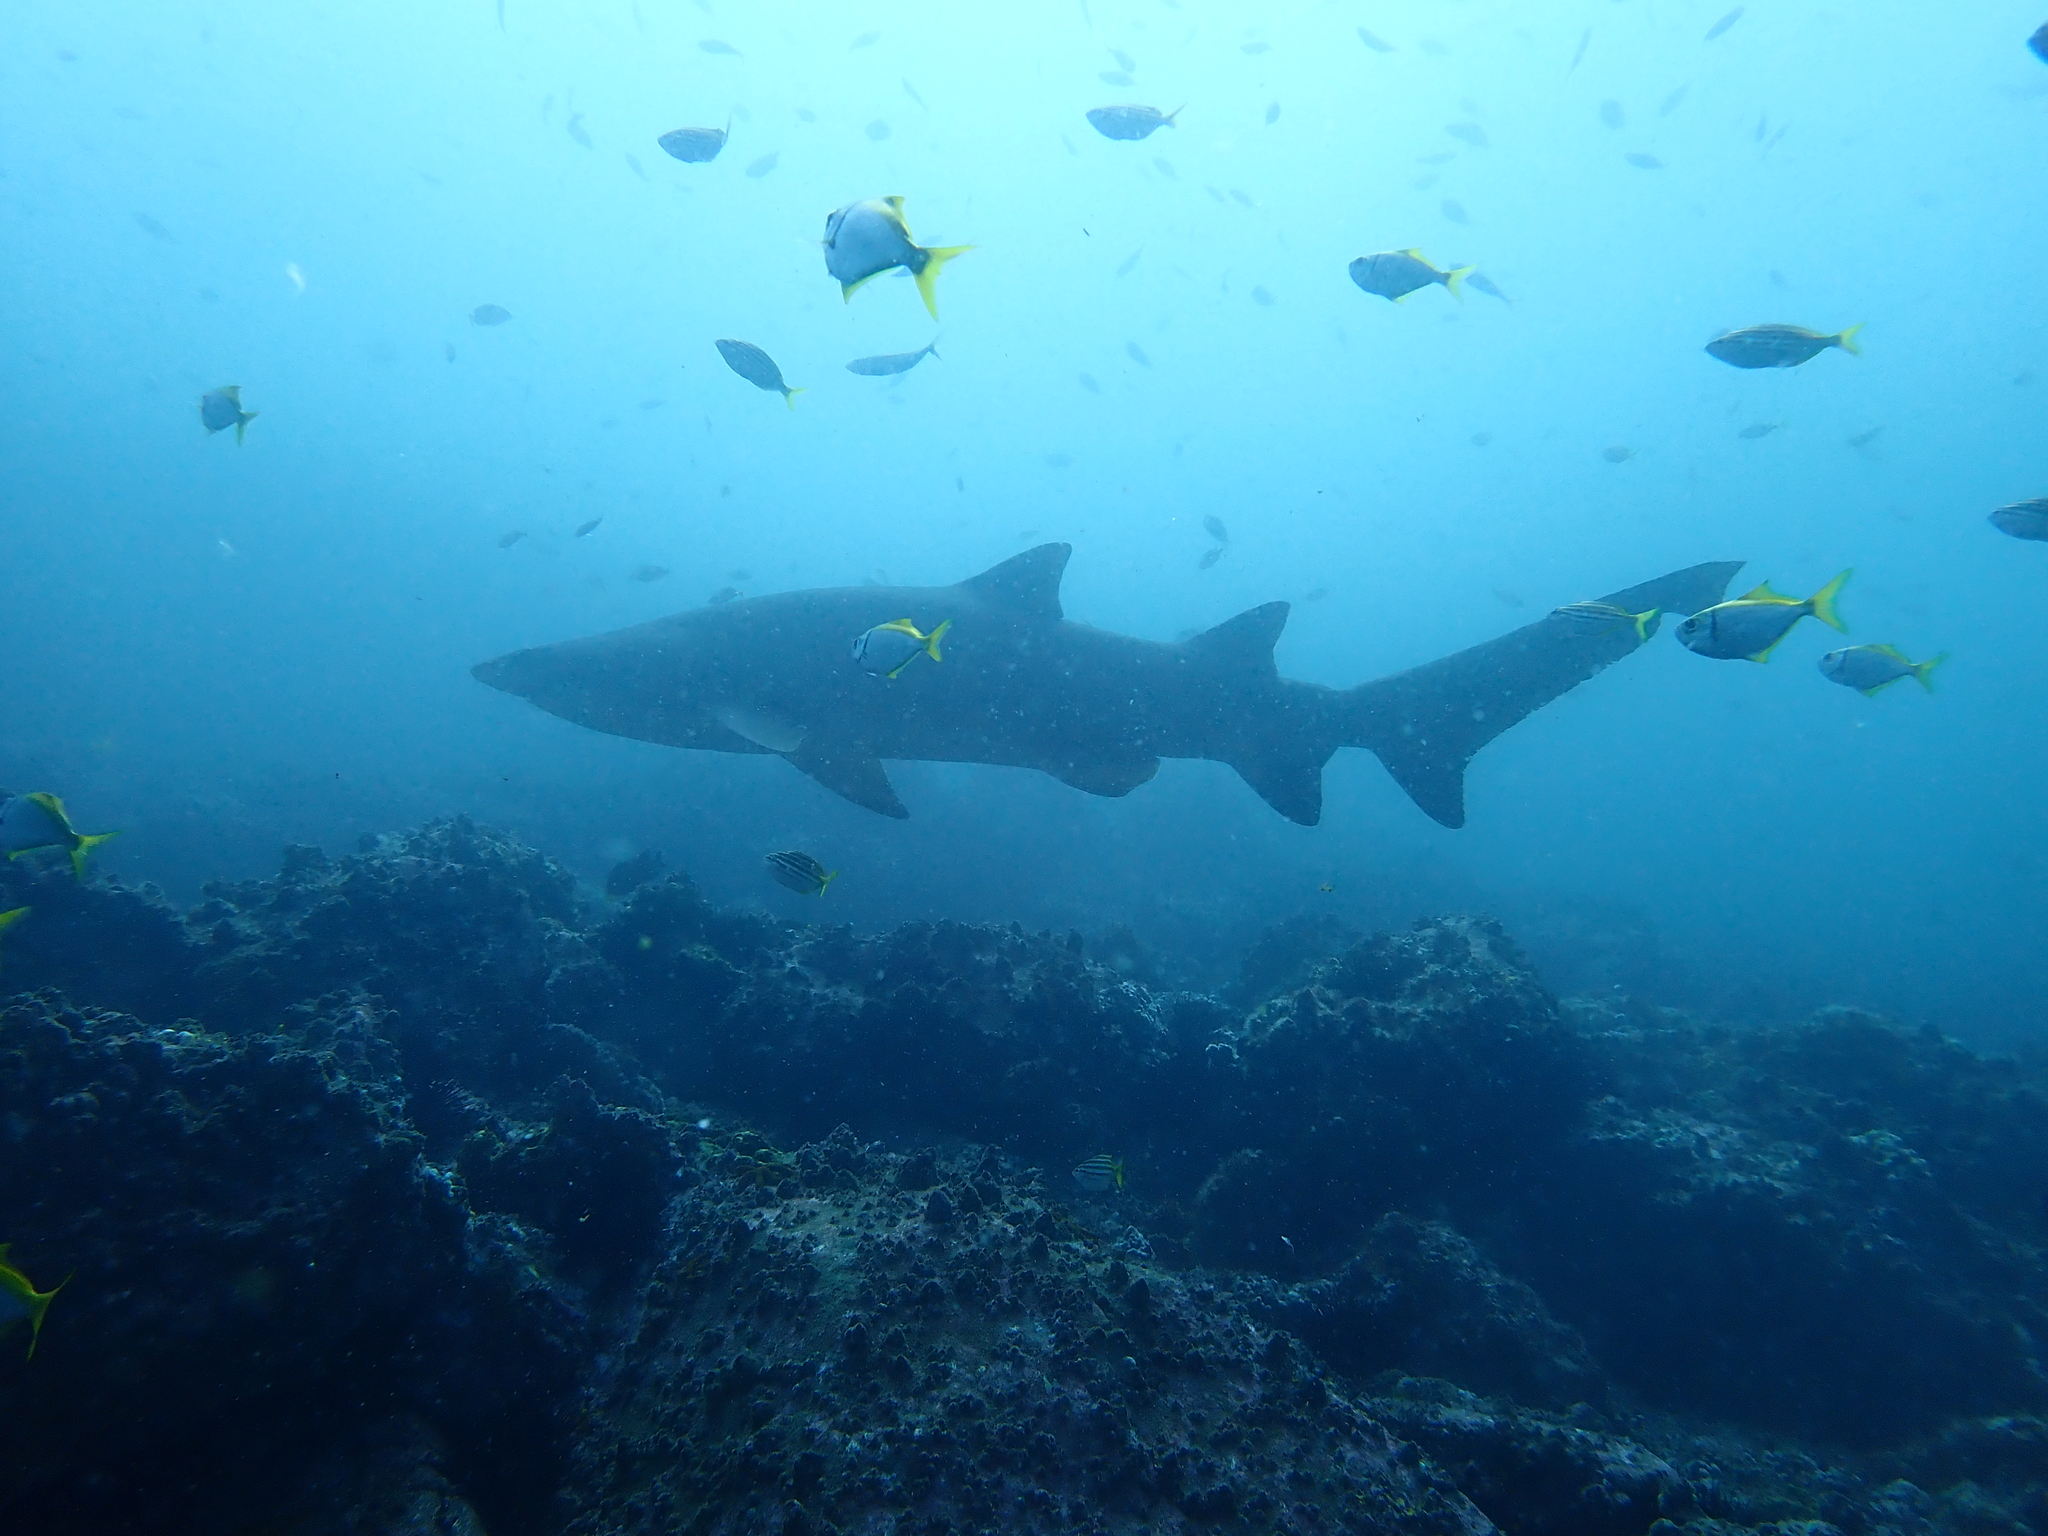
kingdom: Animalia
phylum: Chordata
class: Elasmobranchii
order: Lamniformes
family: Odontaspididae
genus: Carcharias
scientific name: Carcharias taurus
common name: Sand shark
